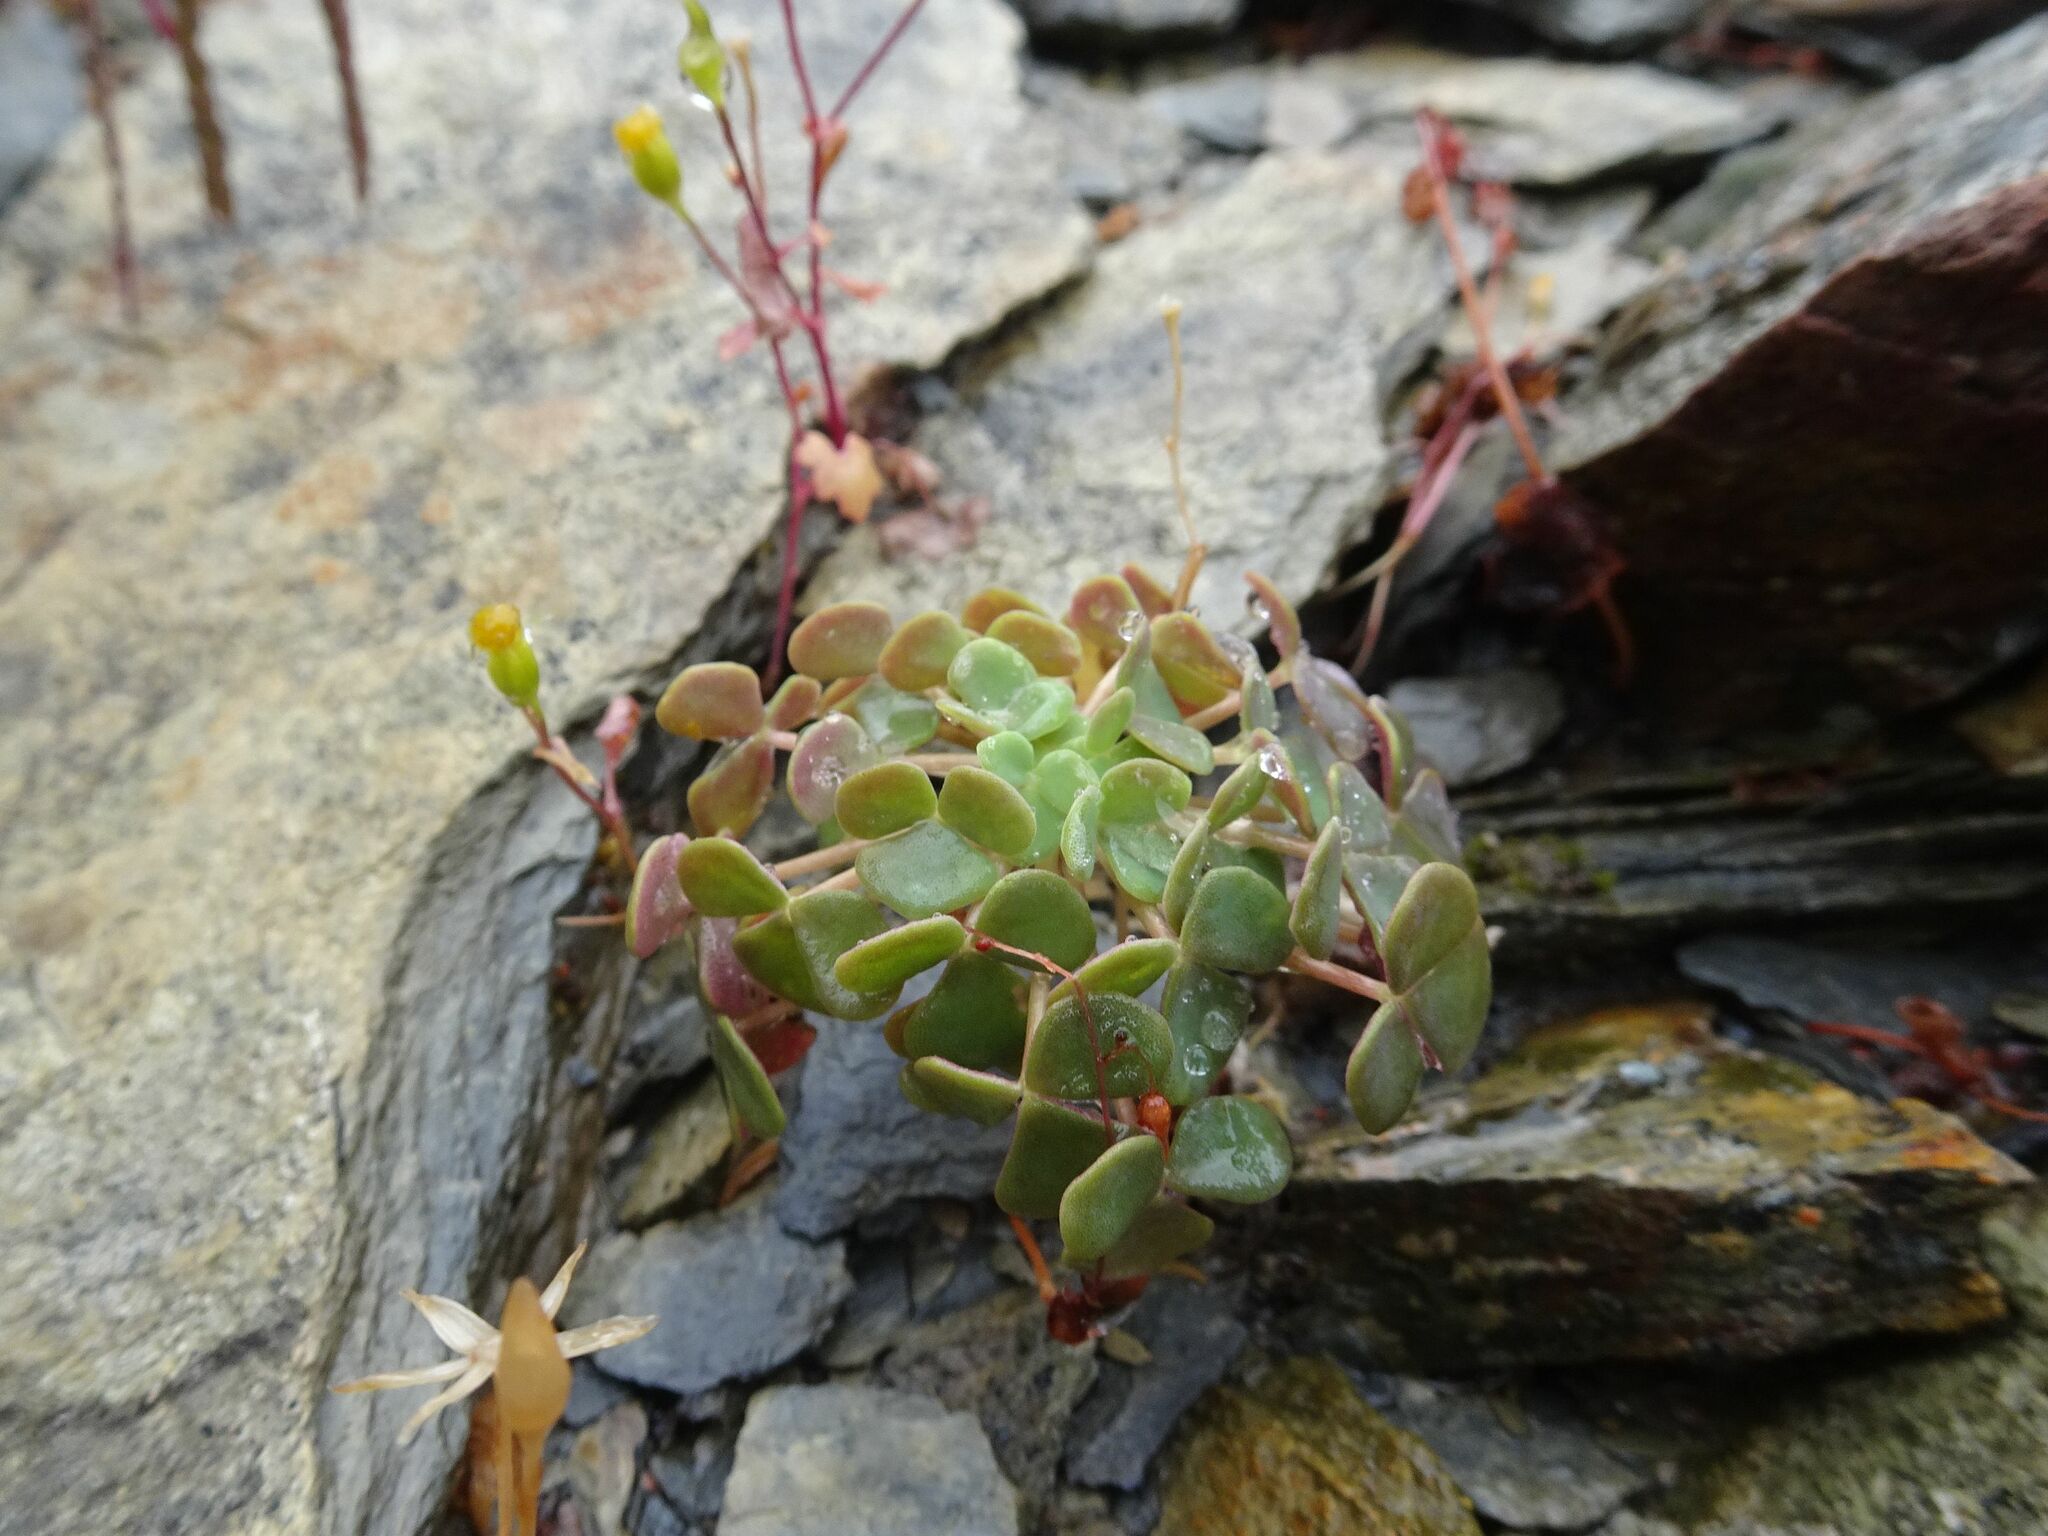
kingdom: Plantae
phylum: Tracheophyta
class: Magnoliopsida
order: Oxalidales
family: Oxalidaceae
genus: Oxalis
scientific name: Oxalis convexula
